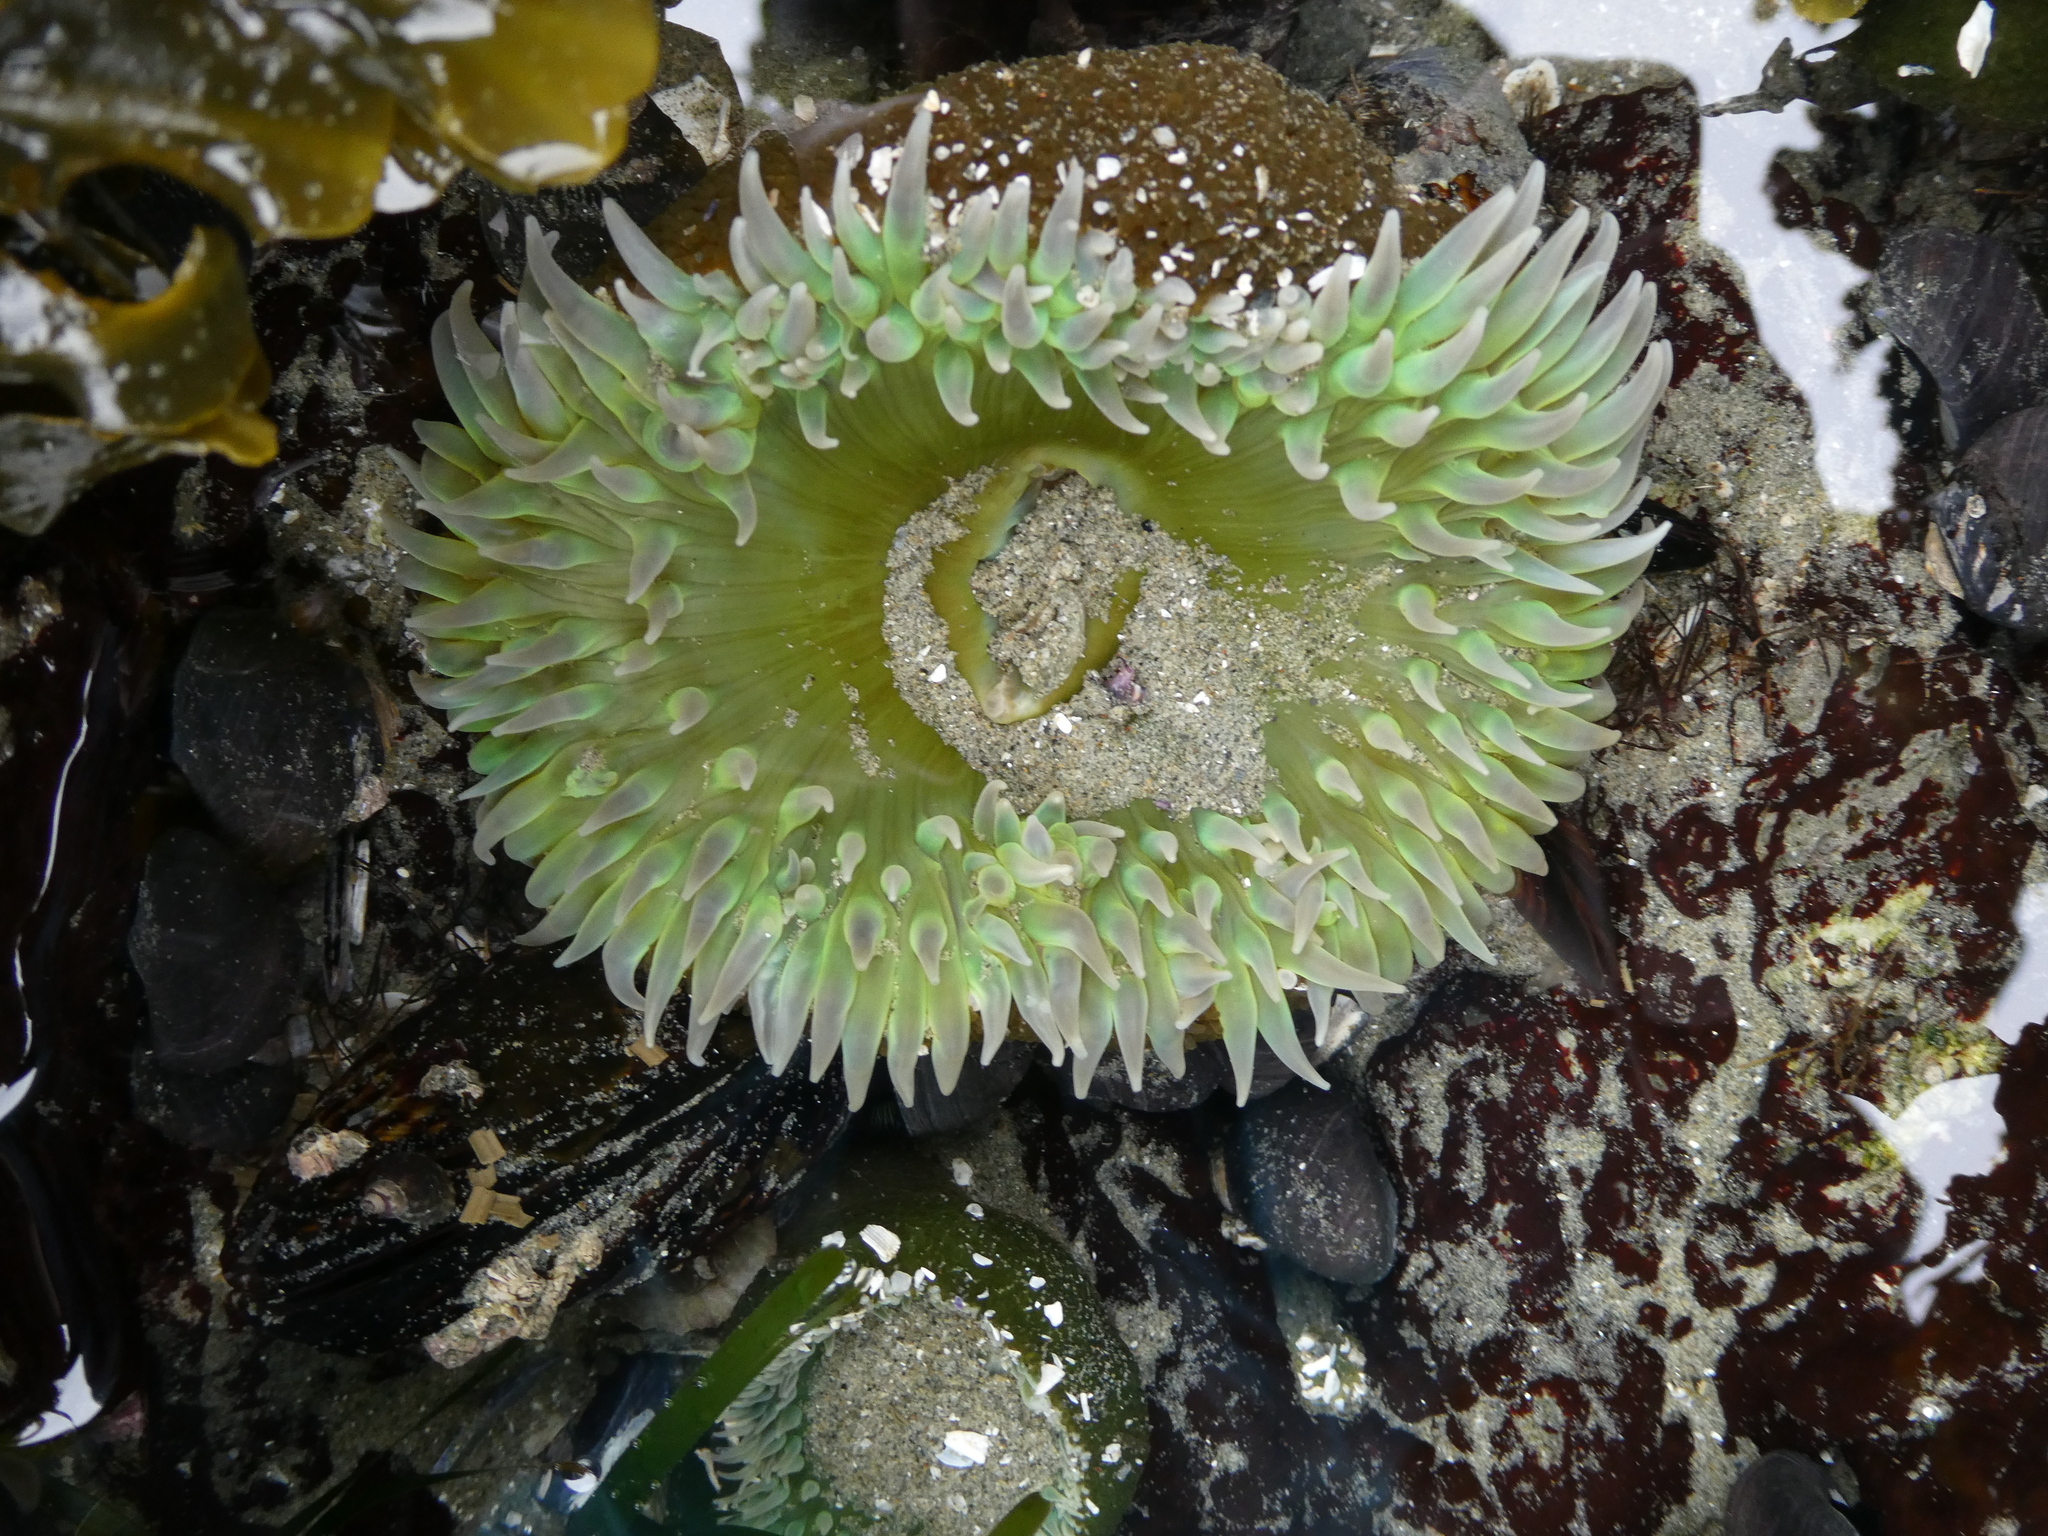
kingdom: Animalia
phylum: Cnidaria
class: Anthozoa
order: Actiniaria
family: Actiniidae
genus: Anthopleura
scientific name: Anthopleura xanthogrammica
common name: Giant green anemone
